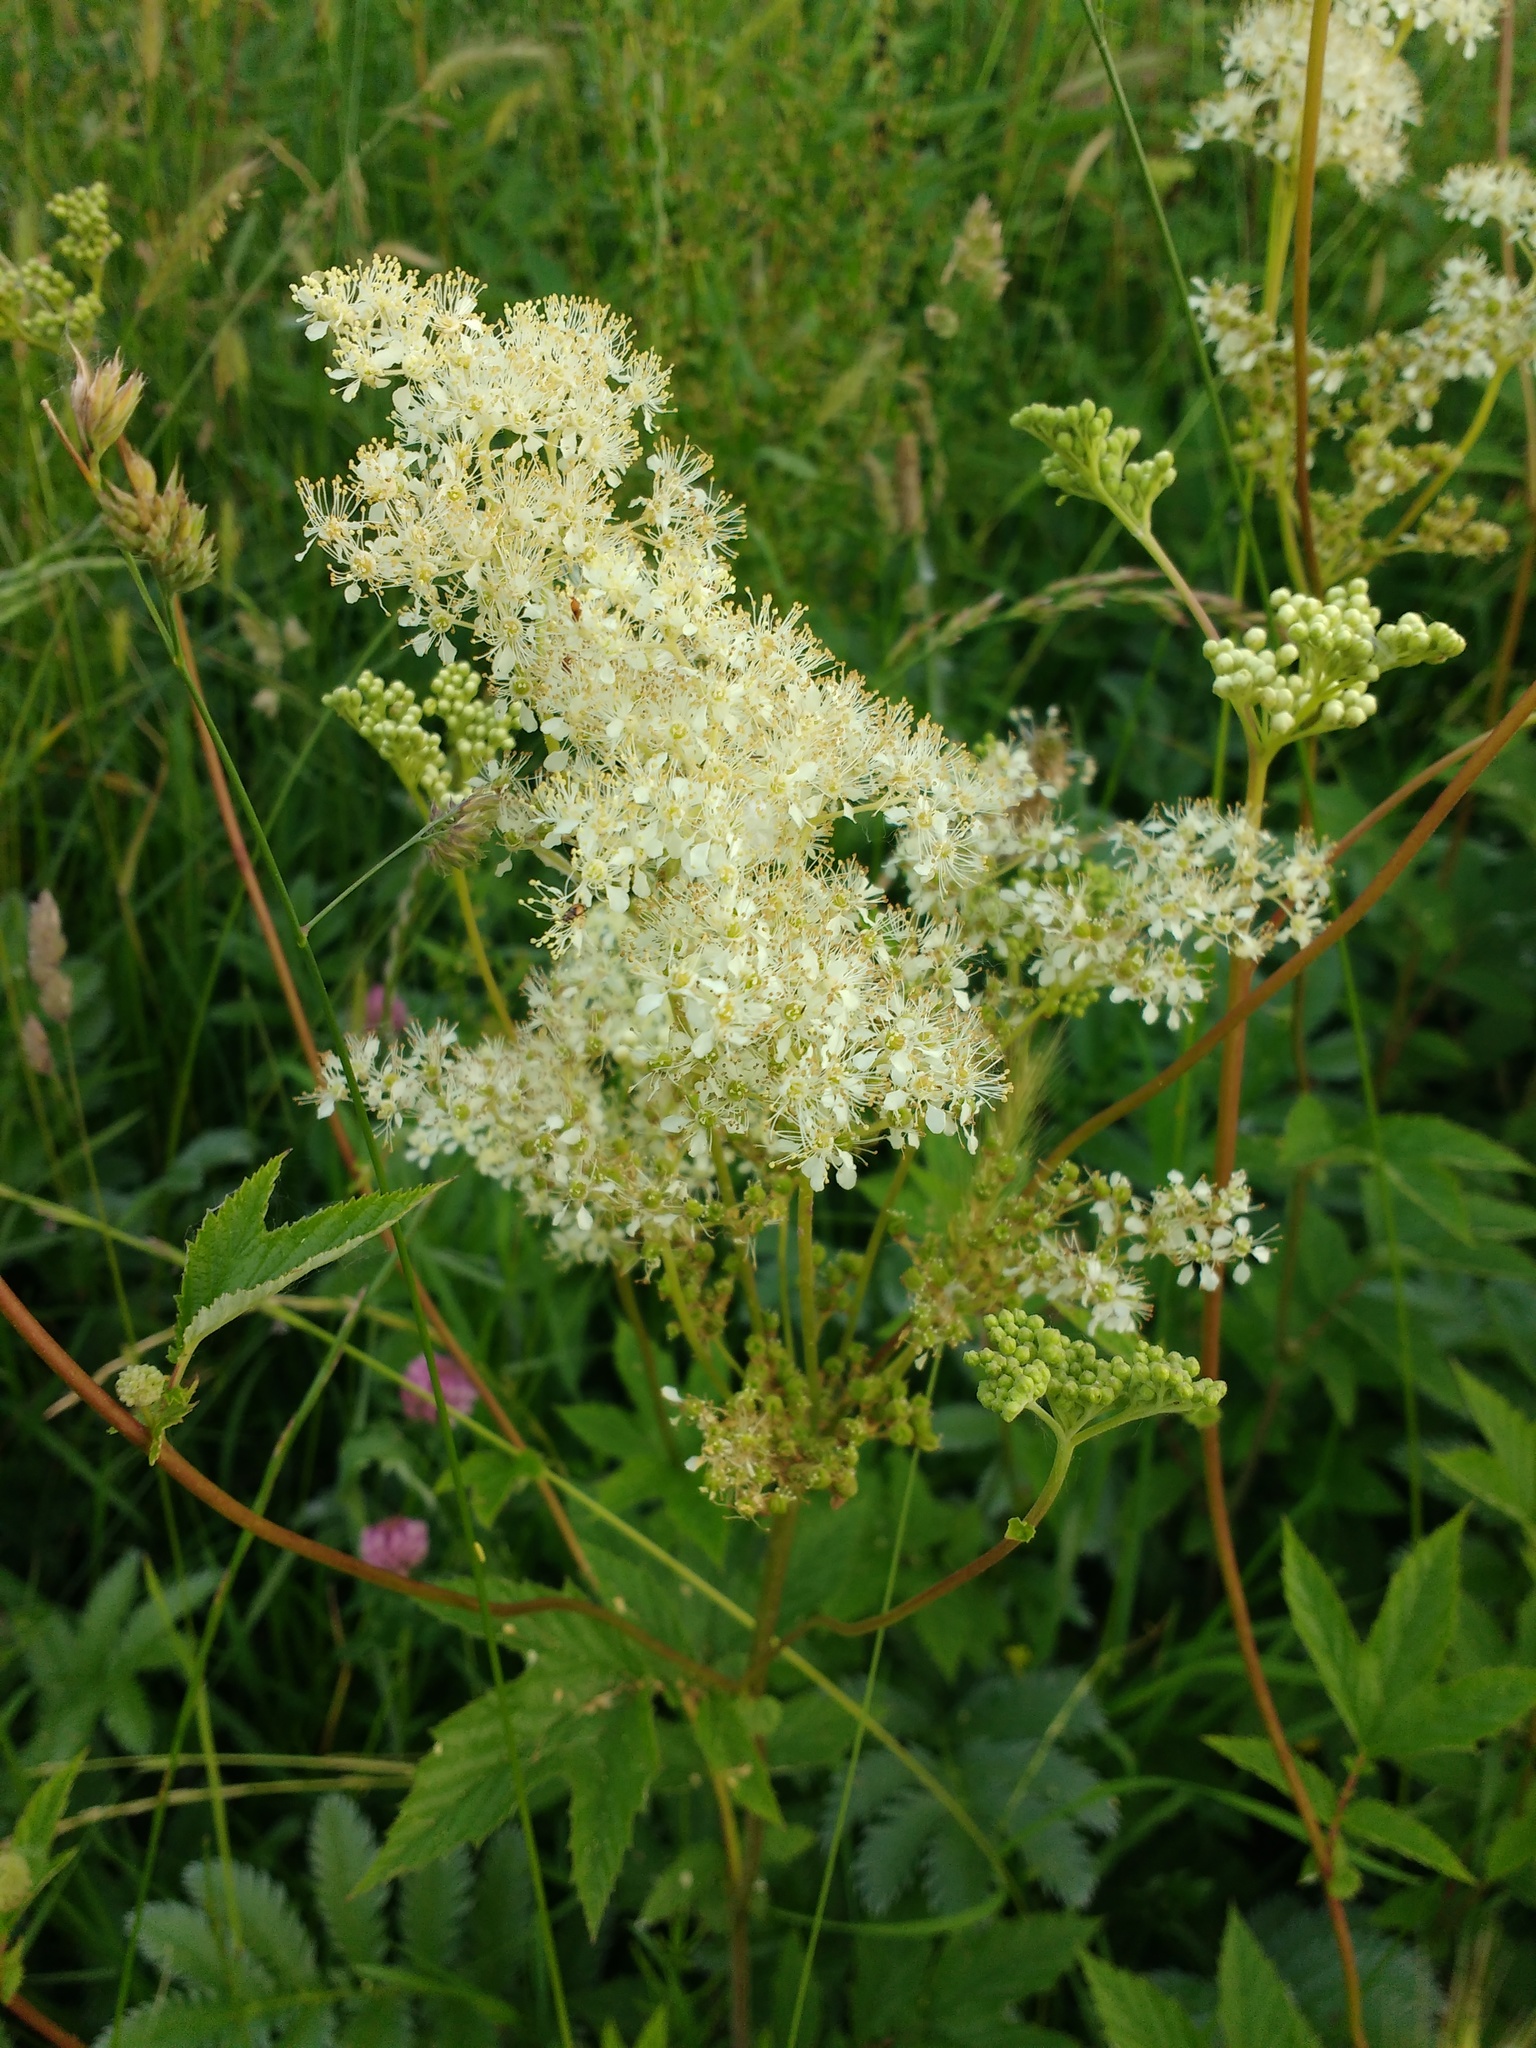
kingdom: Plantae
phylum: Tracheophyta
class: Magnoliopsida
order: Rosales
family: Rosaceae
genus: Filipendula
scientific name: Filipendula ulmaria
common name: Meadowsweet
